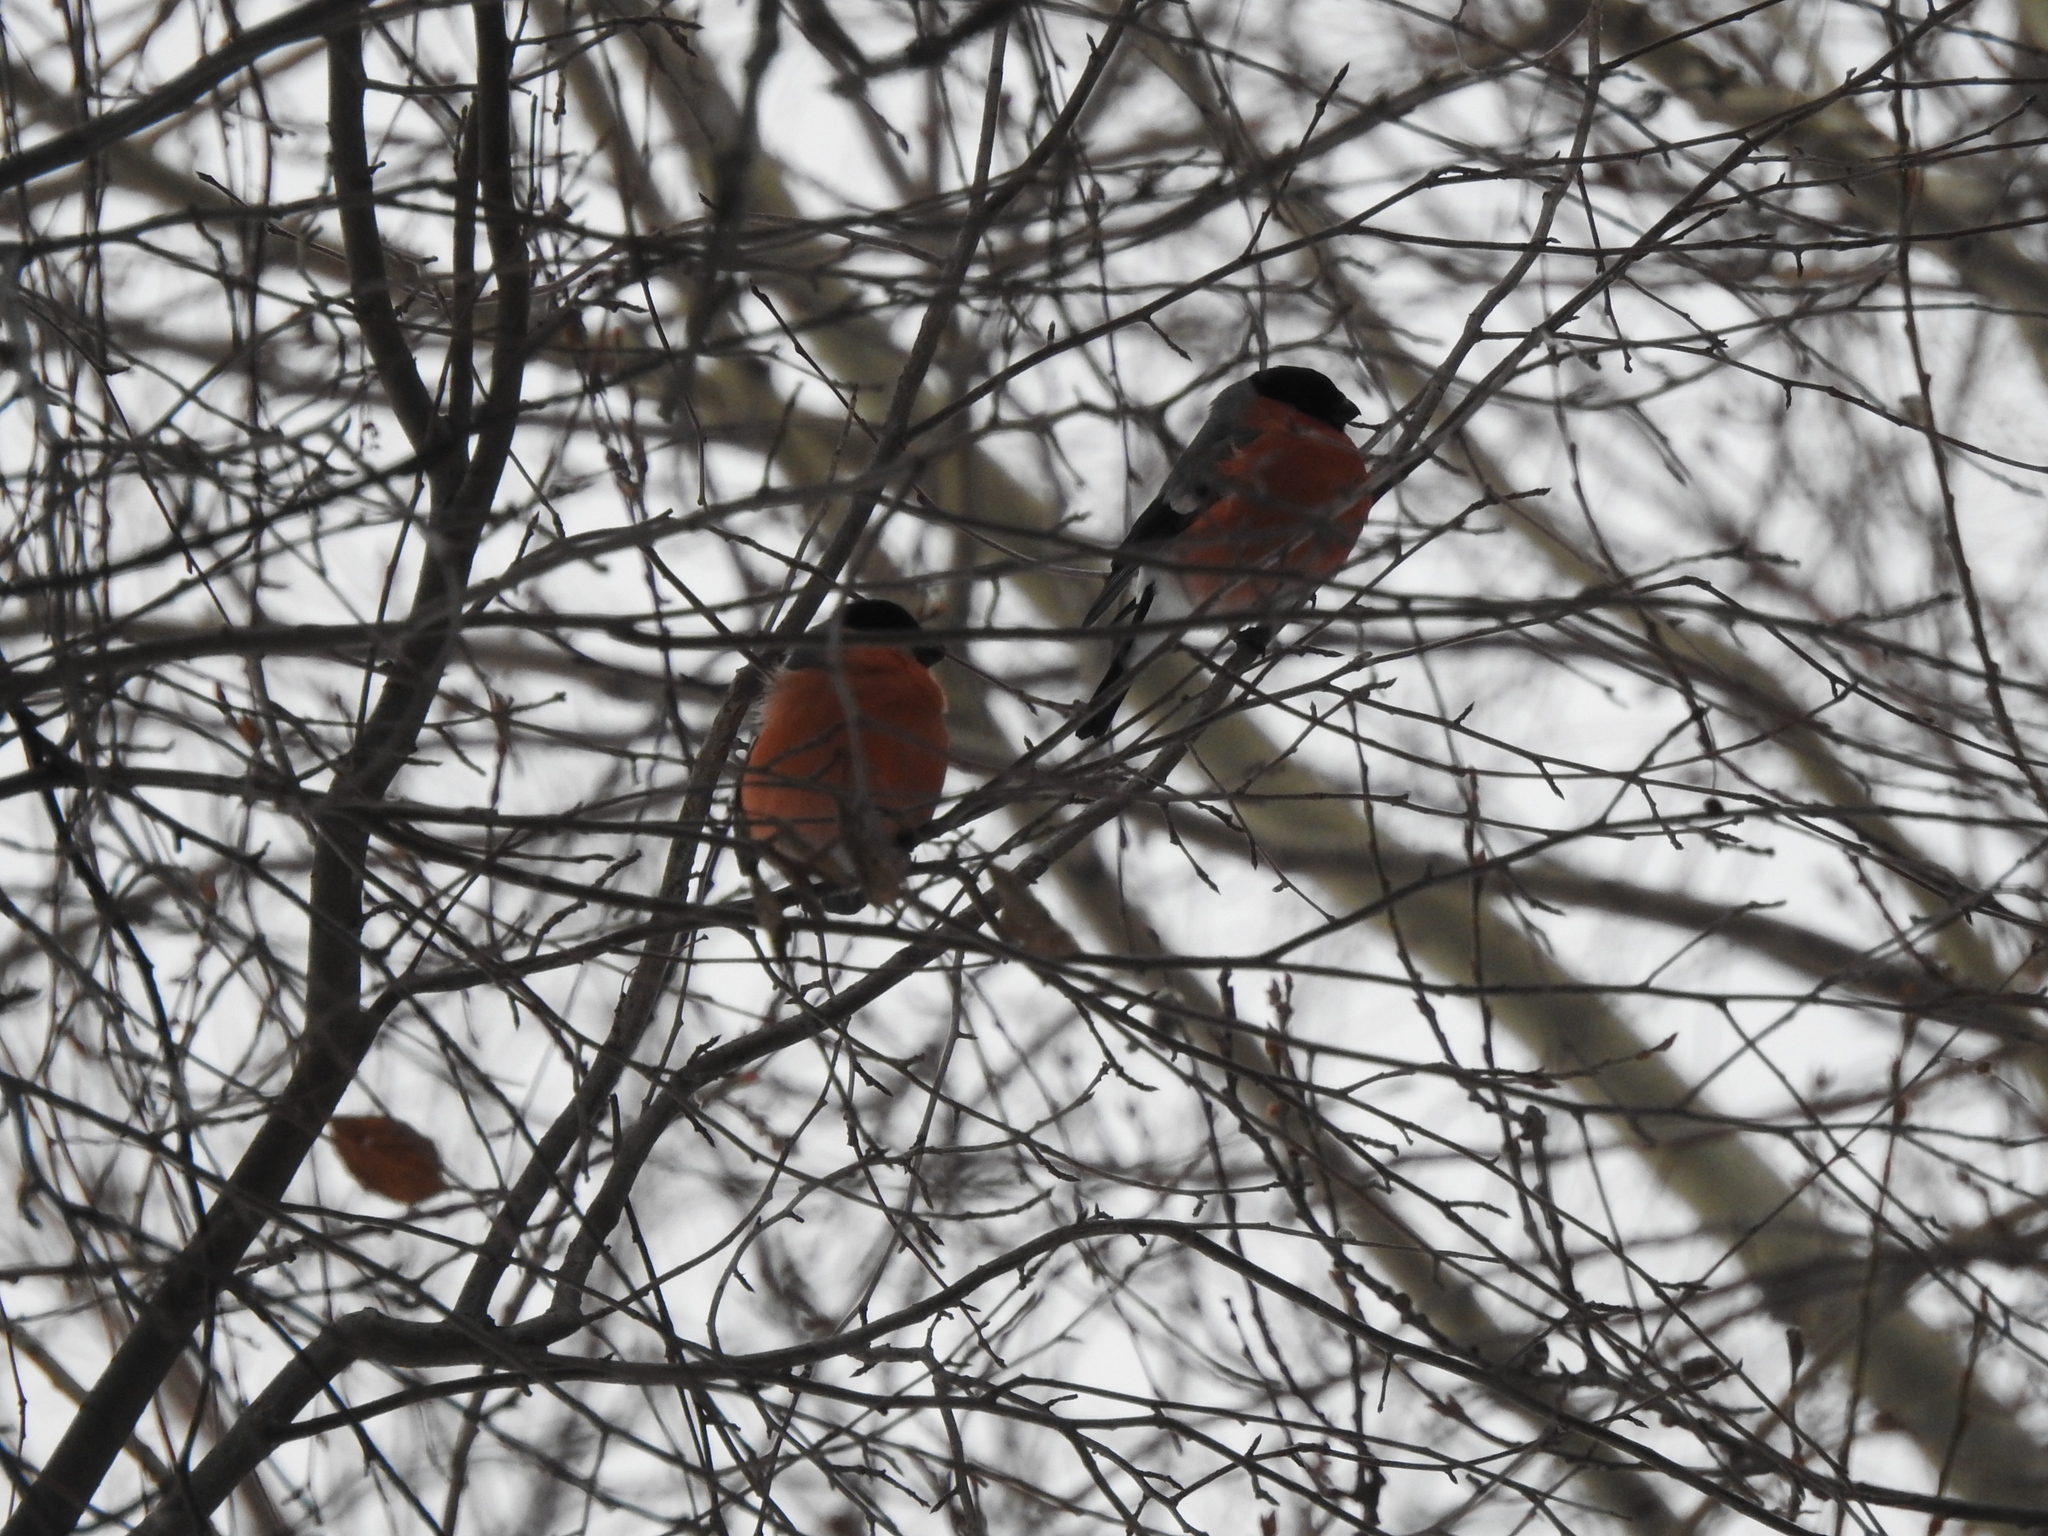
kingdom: Animalia
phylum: Chordata
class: Aves
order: Passeriformes
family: Fringillidae
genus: Pyrrhula
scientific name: Pyrrhula pyrrhula
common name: Eurasian bullfinch
